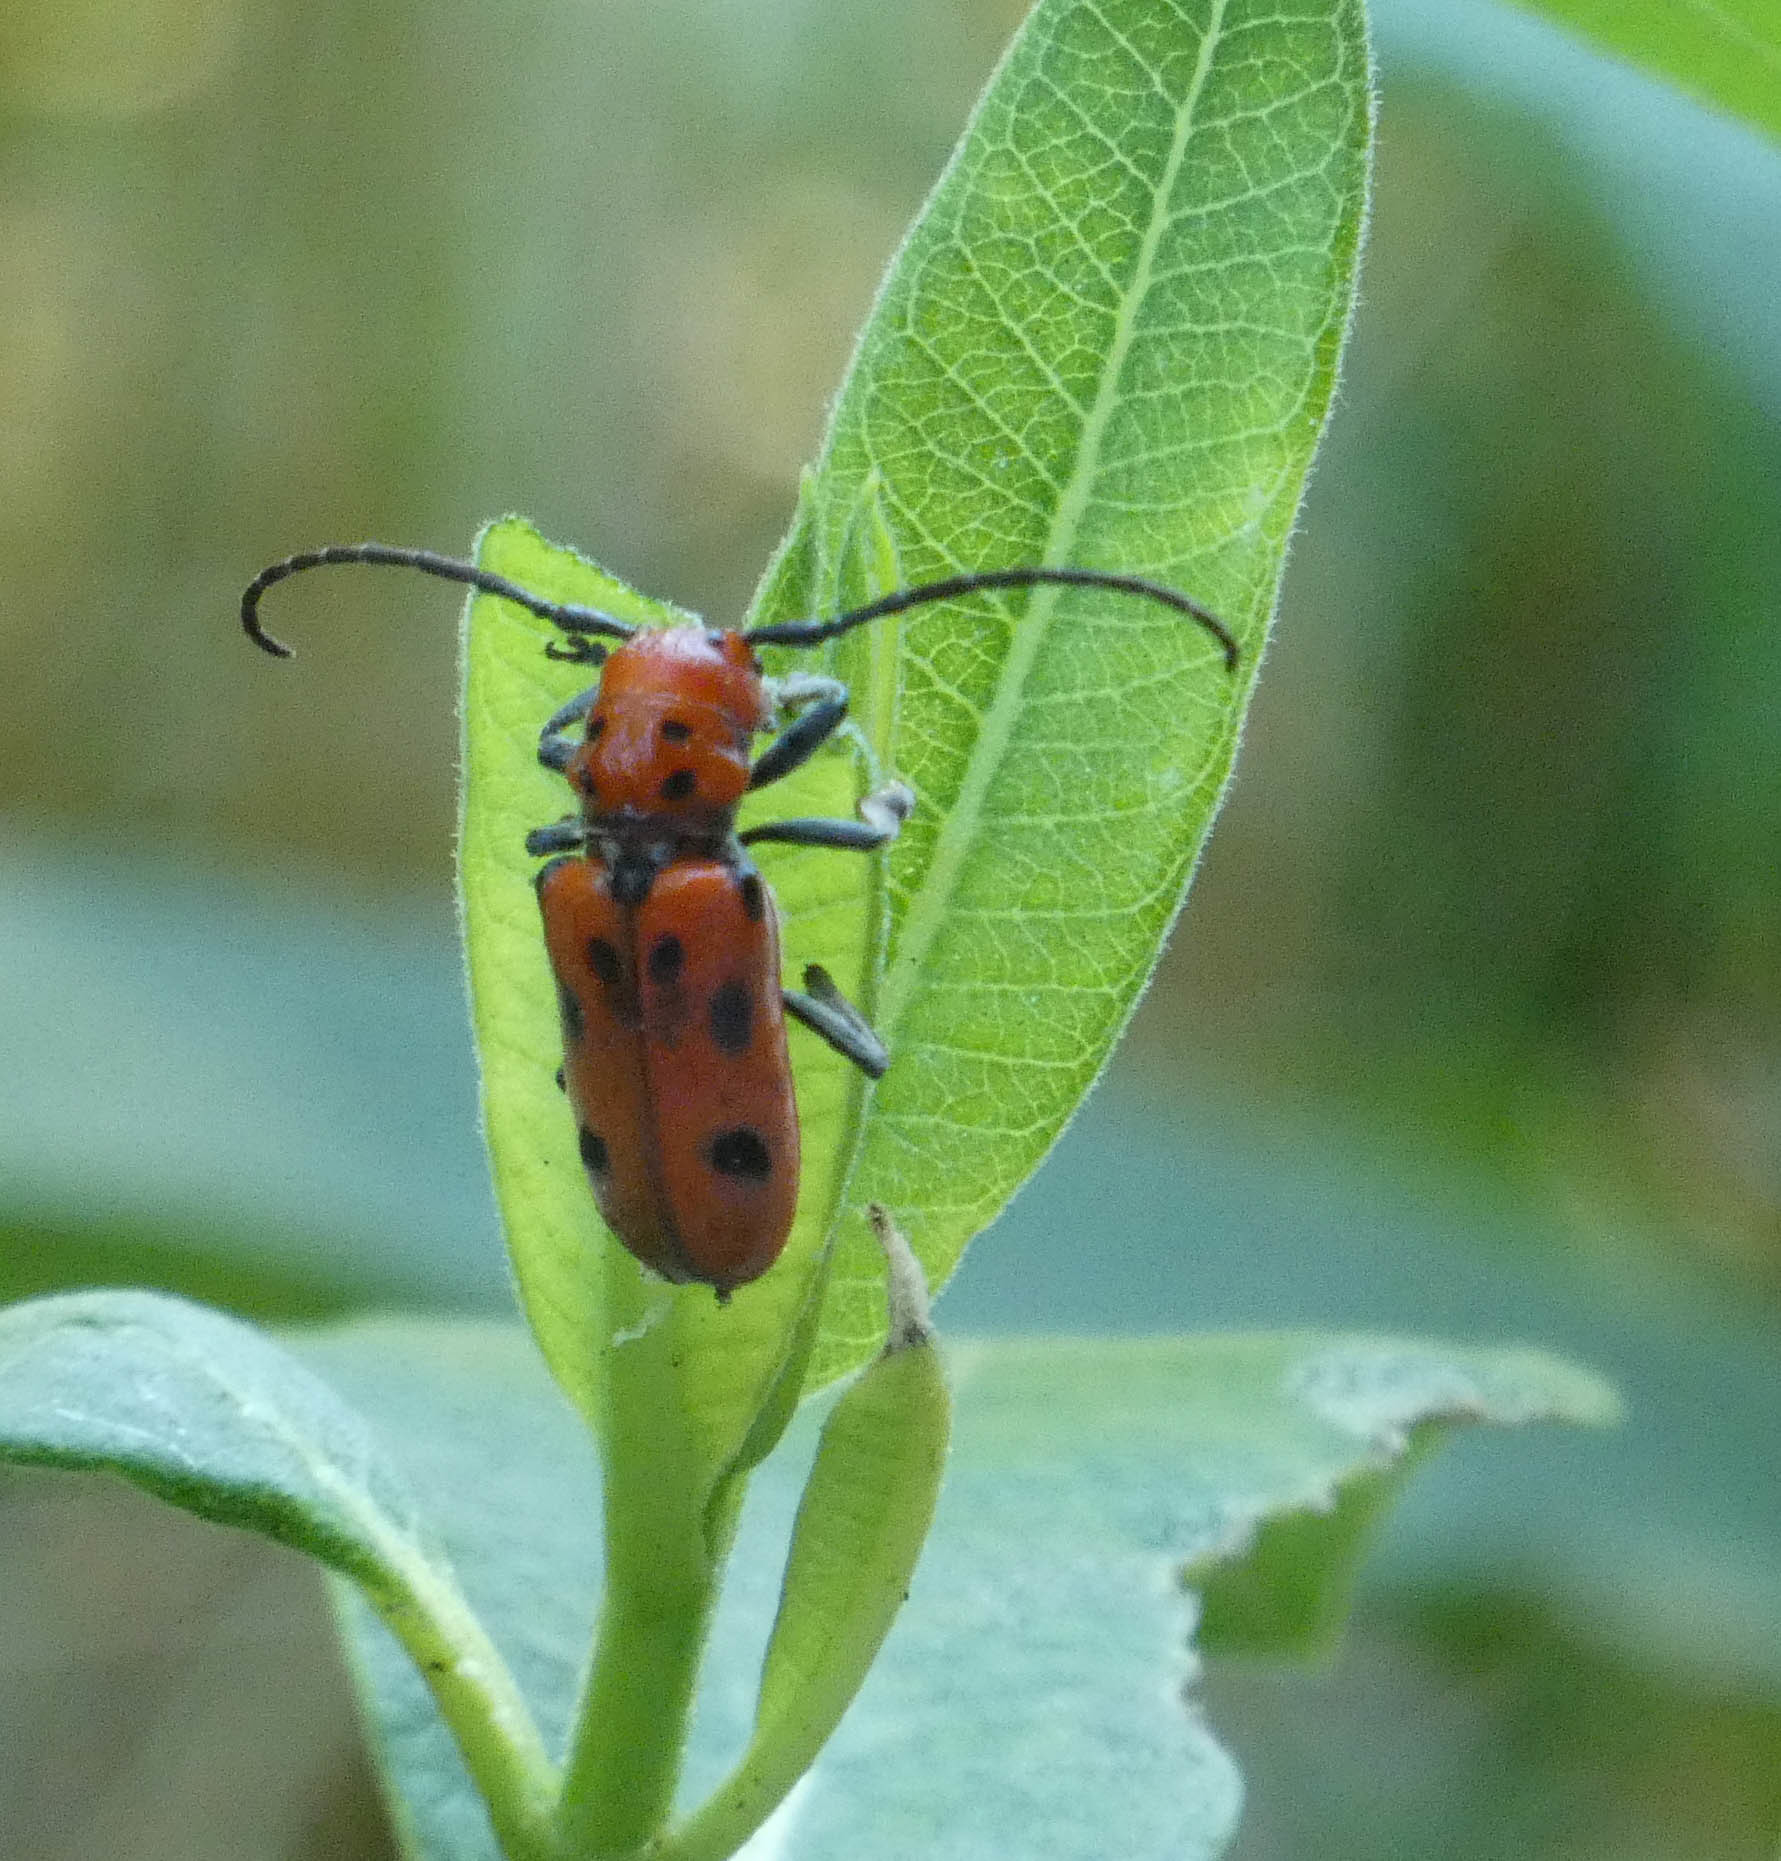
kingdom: Animalia
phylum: Arthropoda
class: Insecta
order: Coleoptera
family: Cerambycidae
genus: Tetraopes
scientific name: Tetraopes tetrophthalmus
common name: Red milkweed beetle
